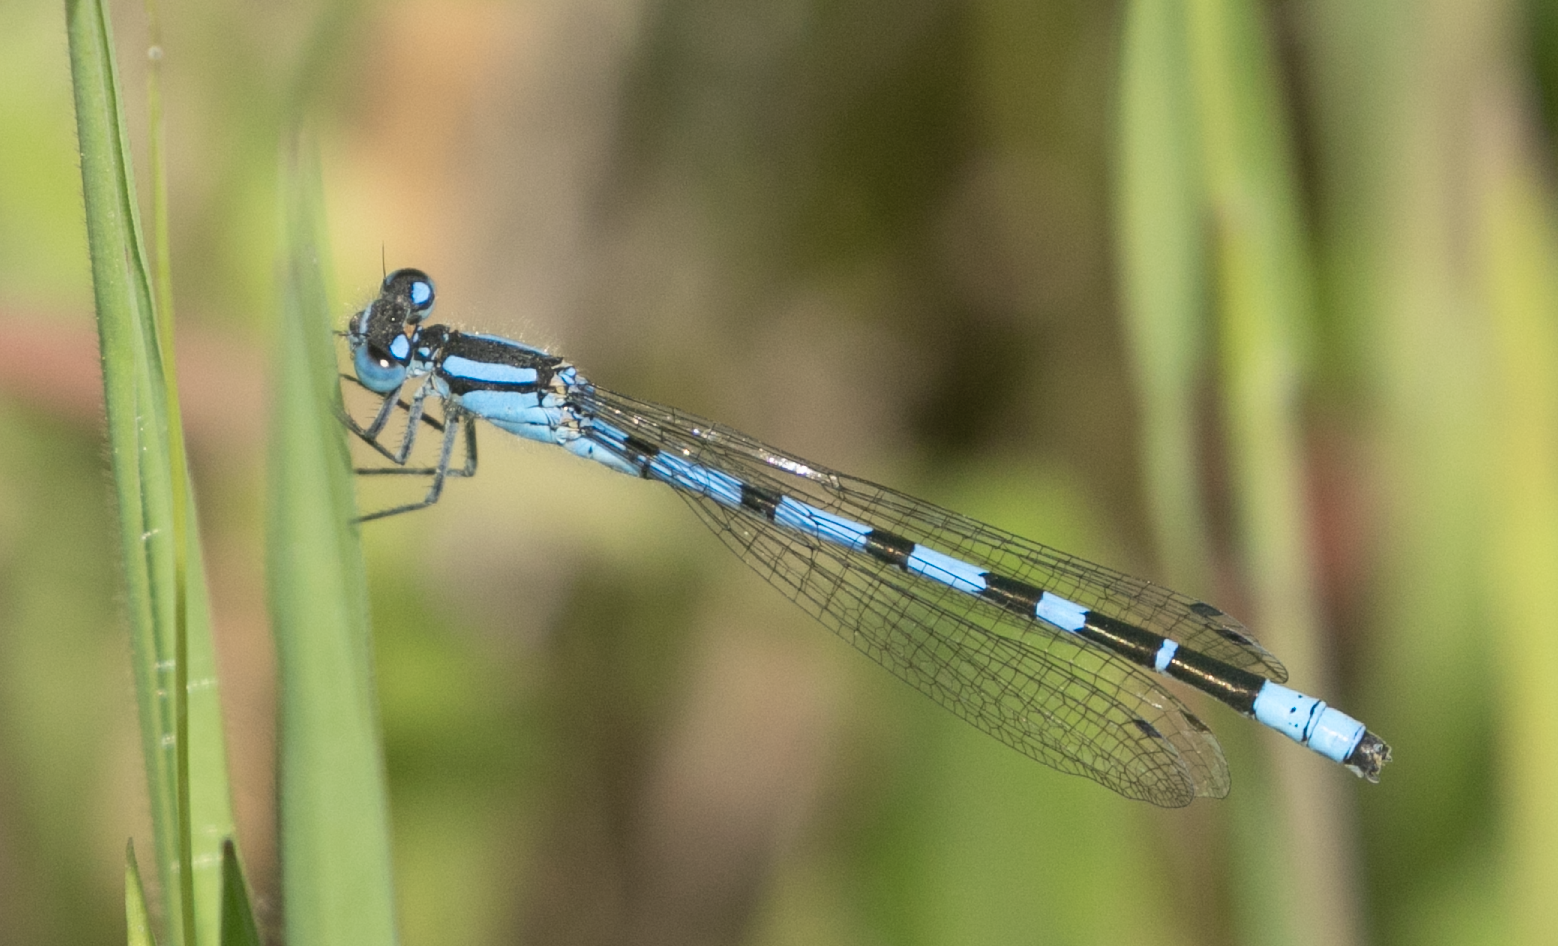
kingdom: Animalia
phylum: Arthropoda
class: Insecta
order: Odonata
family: Coenagrionidae
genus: Enallagma
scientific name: Enallagma cyathigerum
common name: Common blue damselfly
